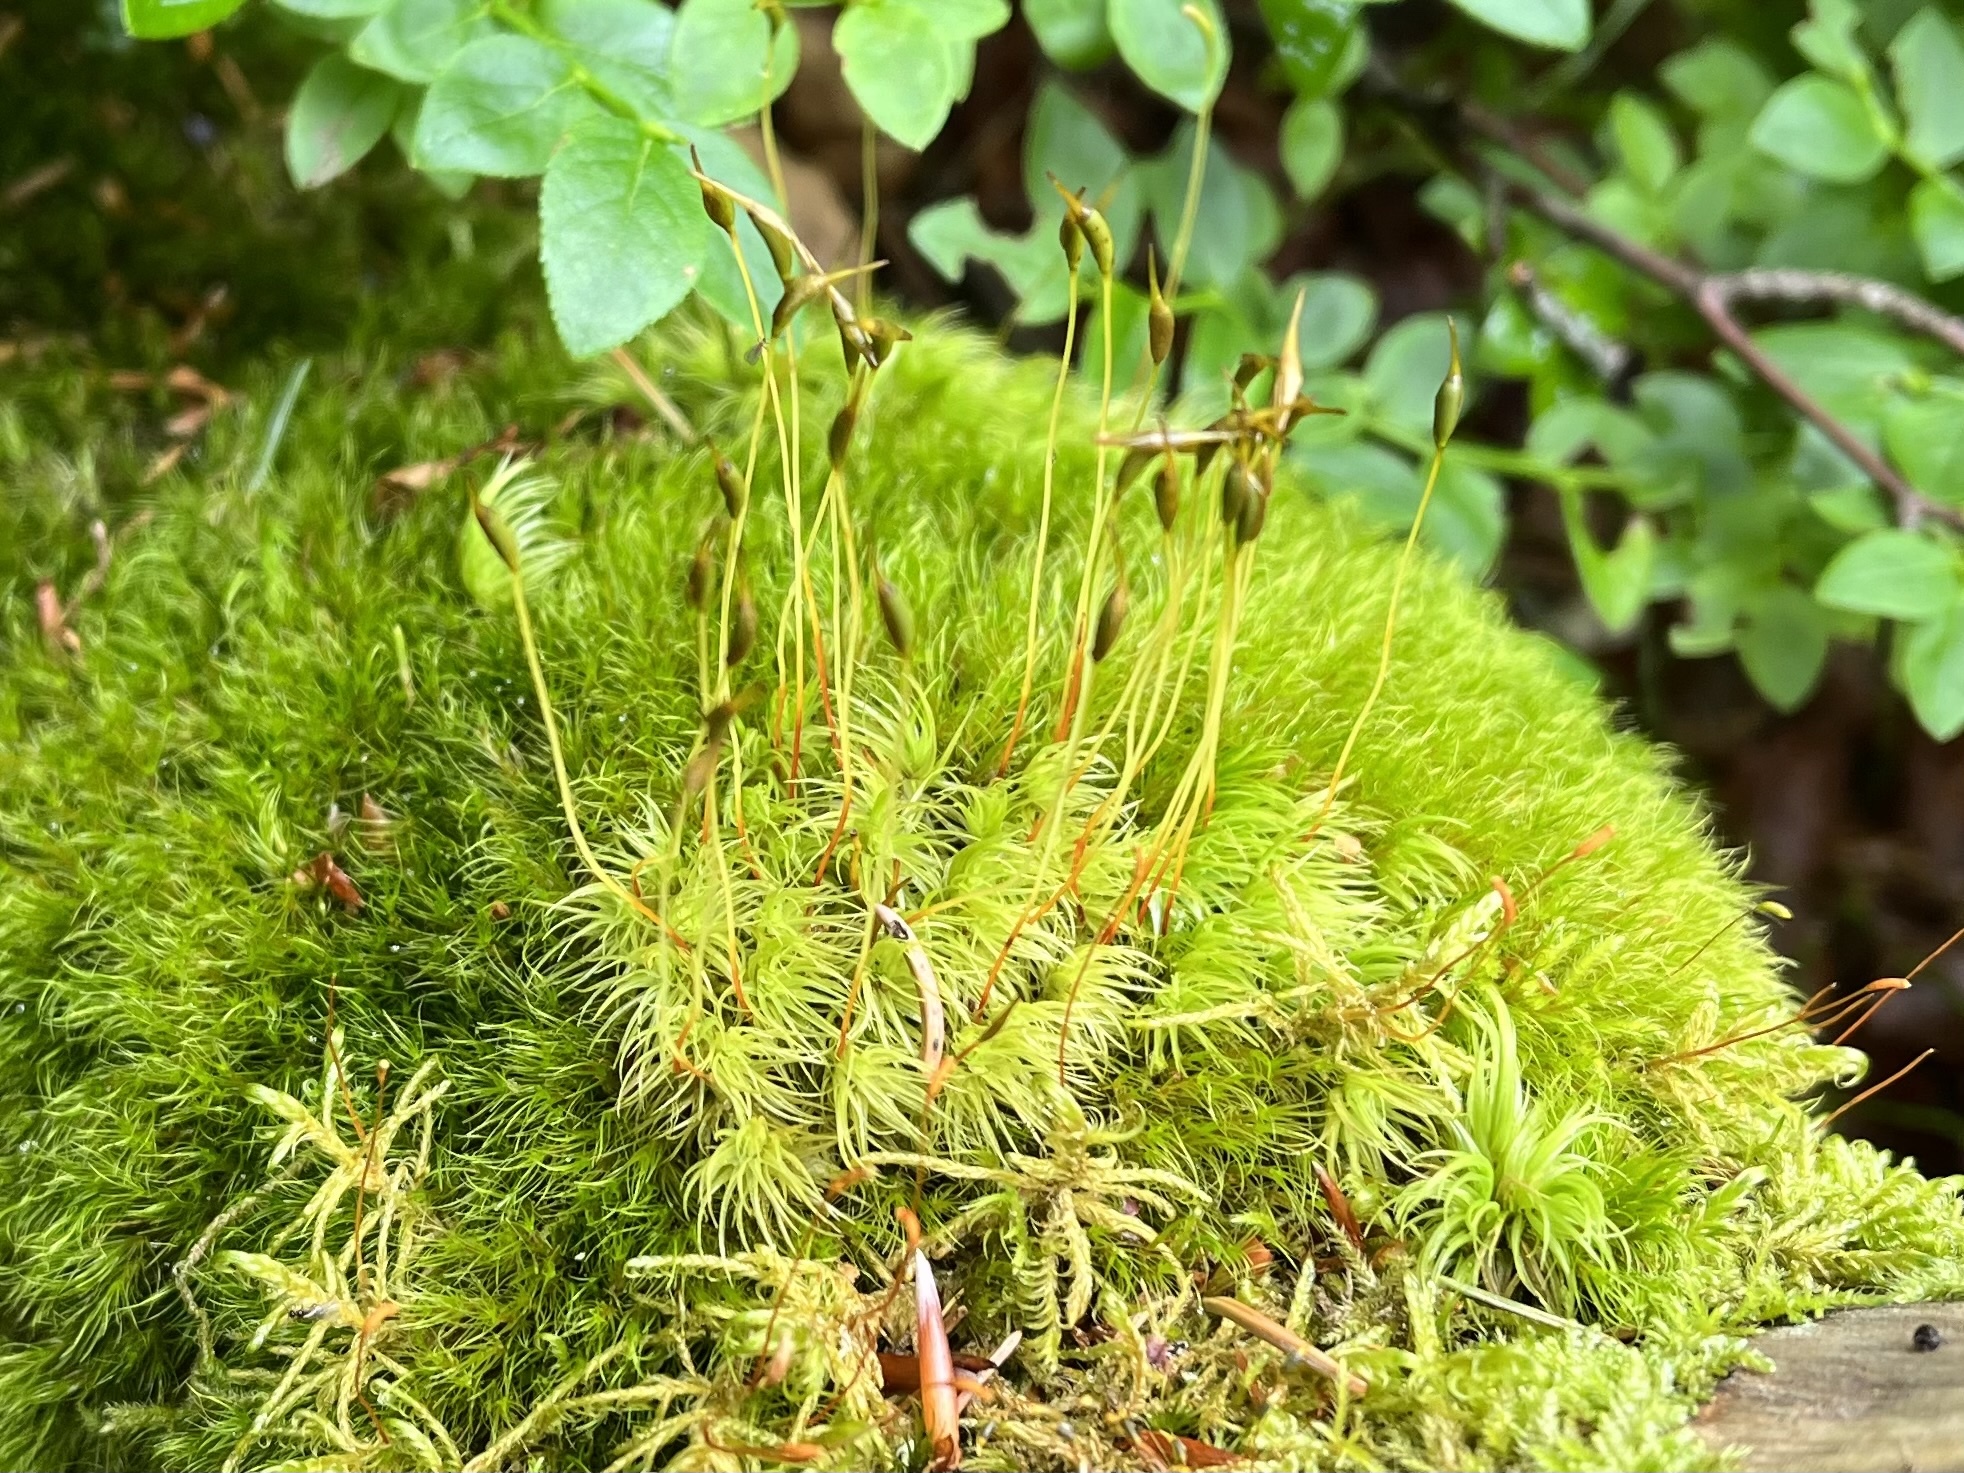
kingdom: Plantae
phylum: Bryophyta
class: Bryopsida
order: Dicranales
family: Dicranaceae
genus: Dicranum
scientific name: Dicranum scoparium
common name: Broom fork-moss
